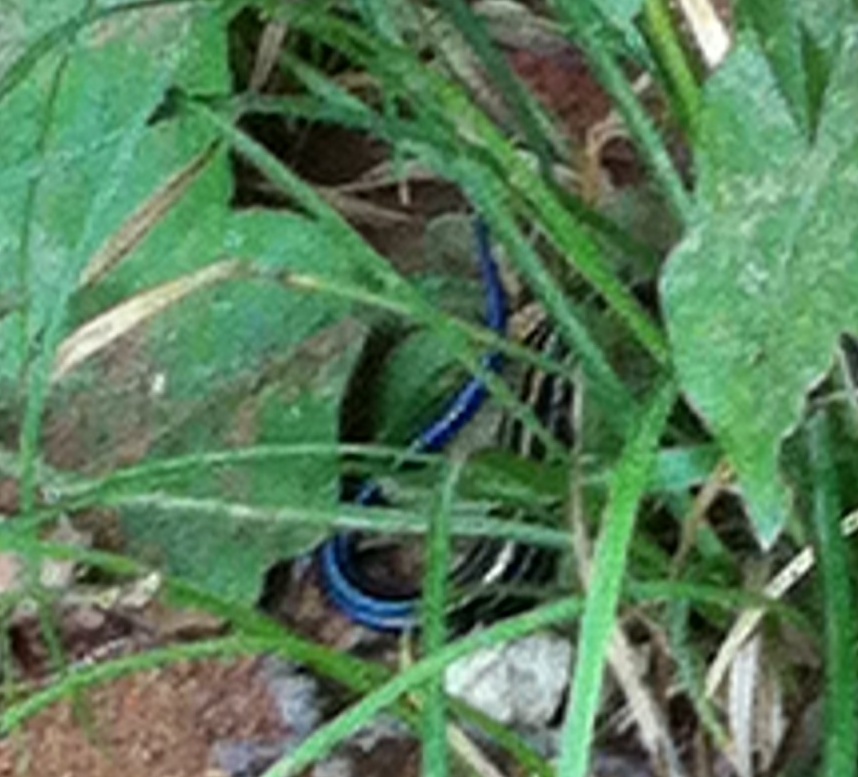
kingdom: Animalia
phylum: Chordata
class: Squamata
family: Scincidae
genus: Plestiodon
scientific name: Plestiodon fasciatus
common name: Five-lined skink
